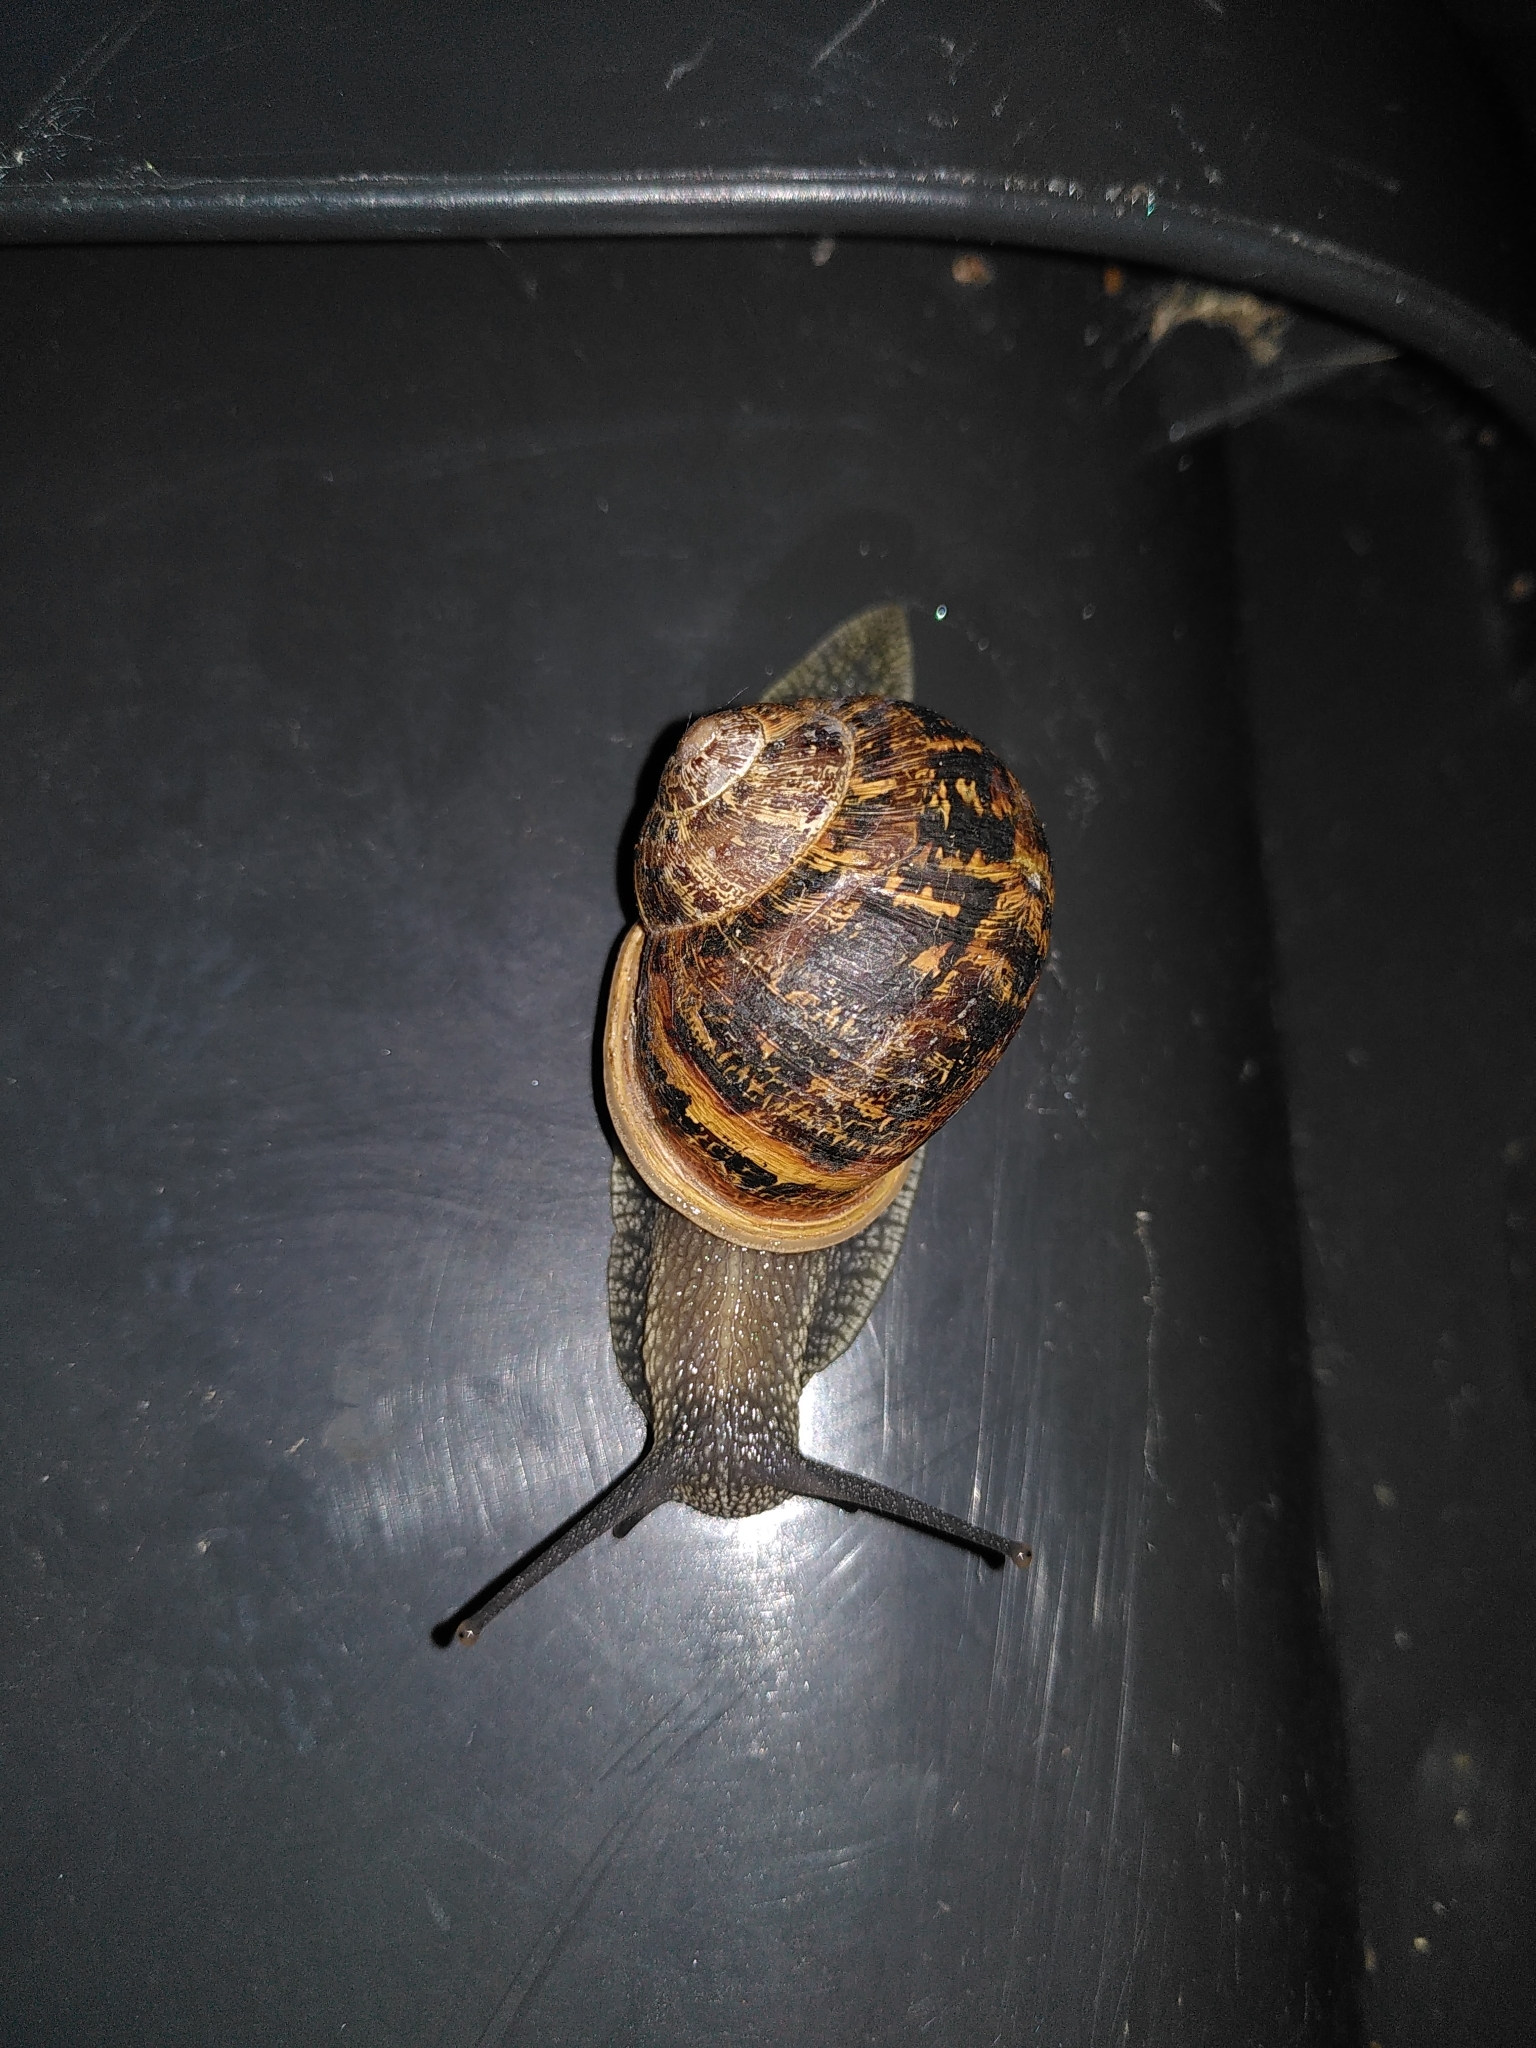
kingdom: Animalia
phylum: Mollusca
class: Gastropoda
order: Stylommatophora
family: Helicidae
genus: Cornu
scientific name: Cornu aspersum
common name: Brown garden snail
